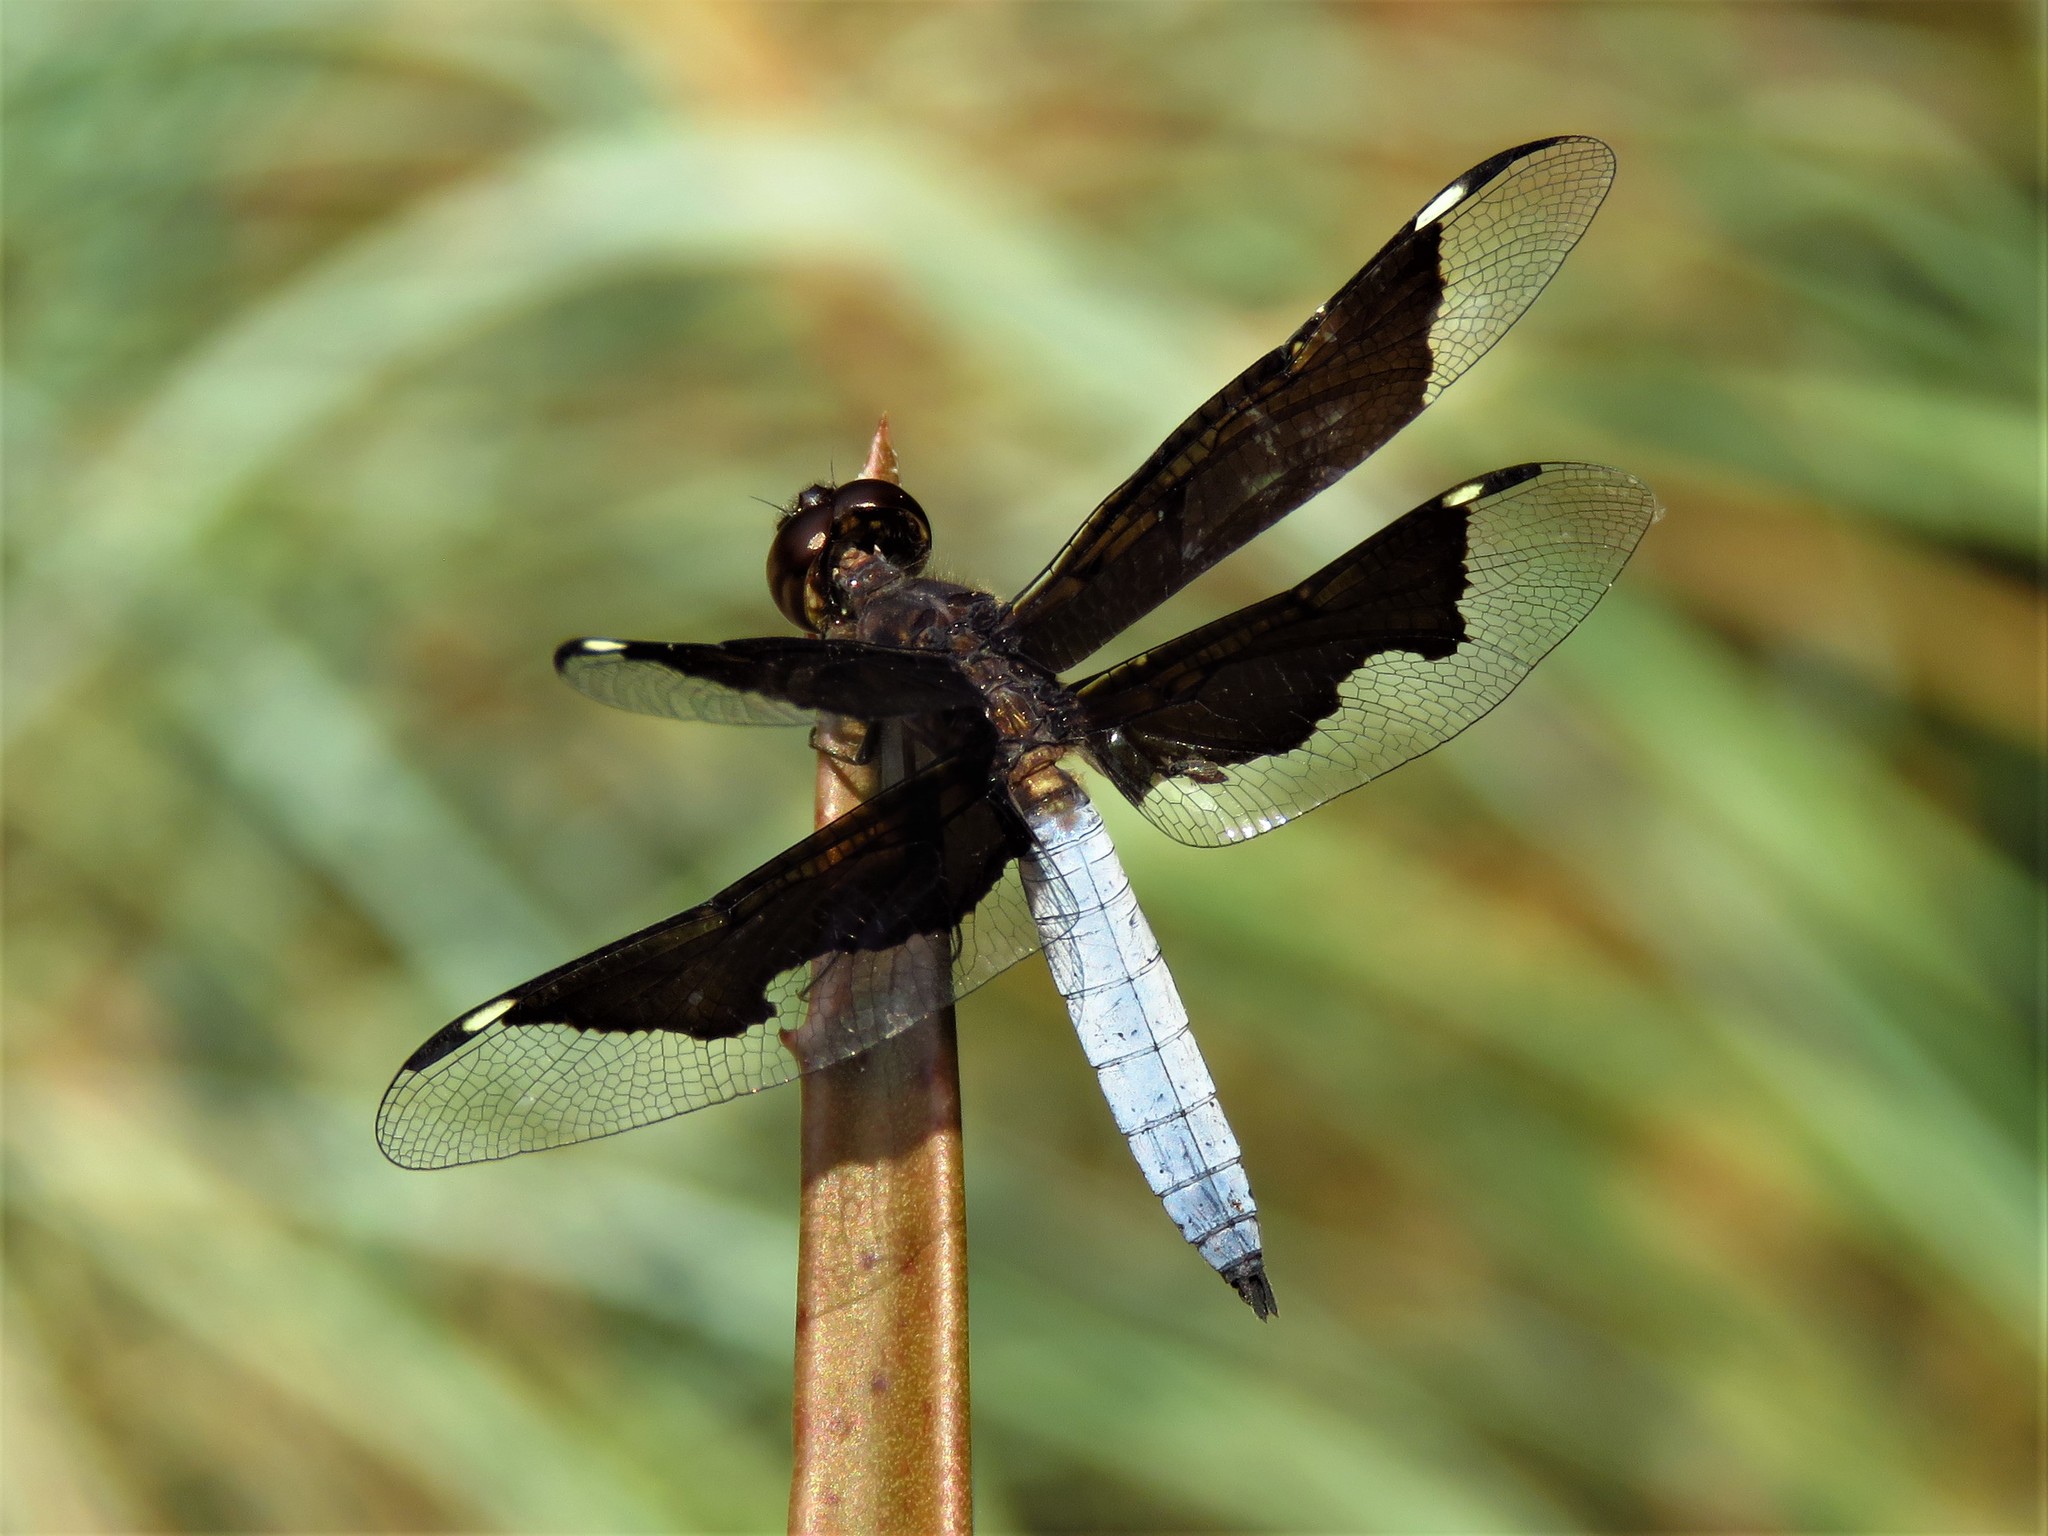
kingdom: Animalia
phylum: Arthropoda
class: Insecta
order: Odonata
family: Libellulidae
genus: Palpopleura
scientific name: Palpopleura lucia
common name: Lucia widow
